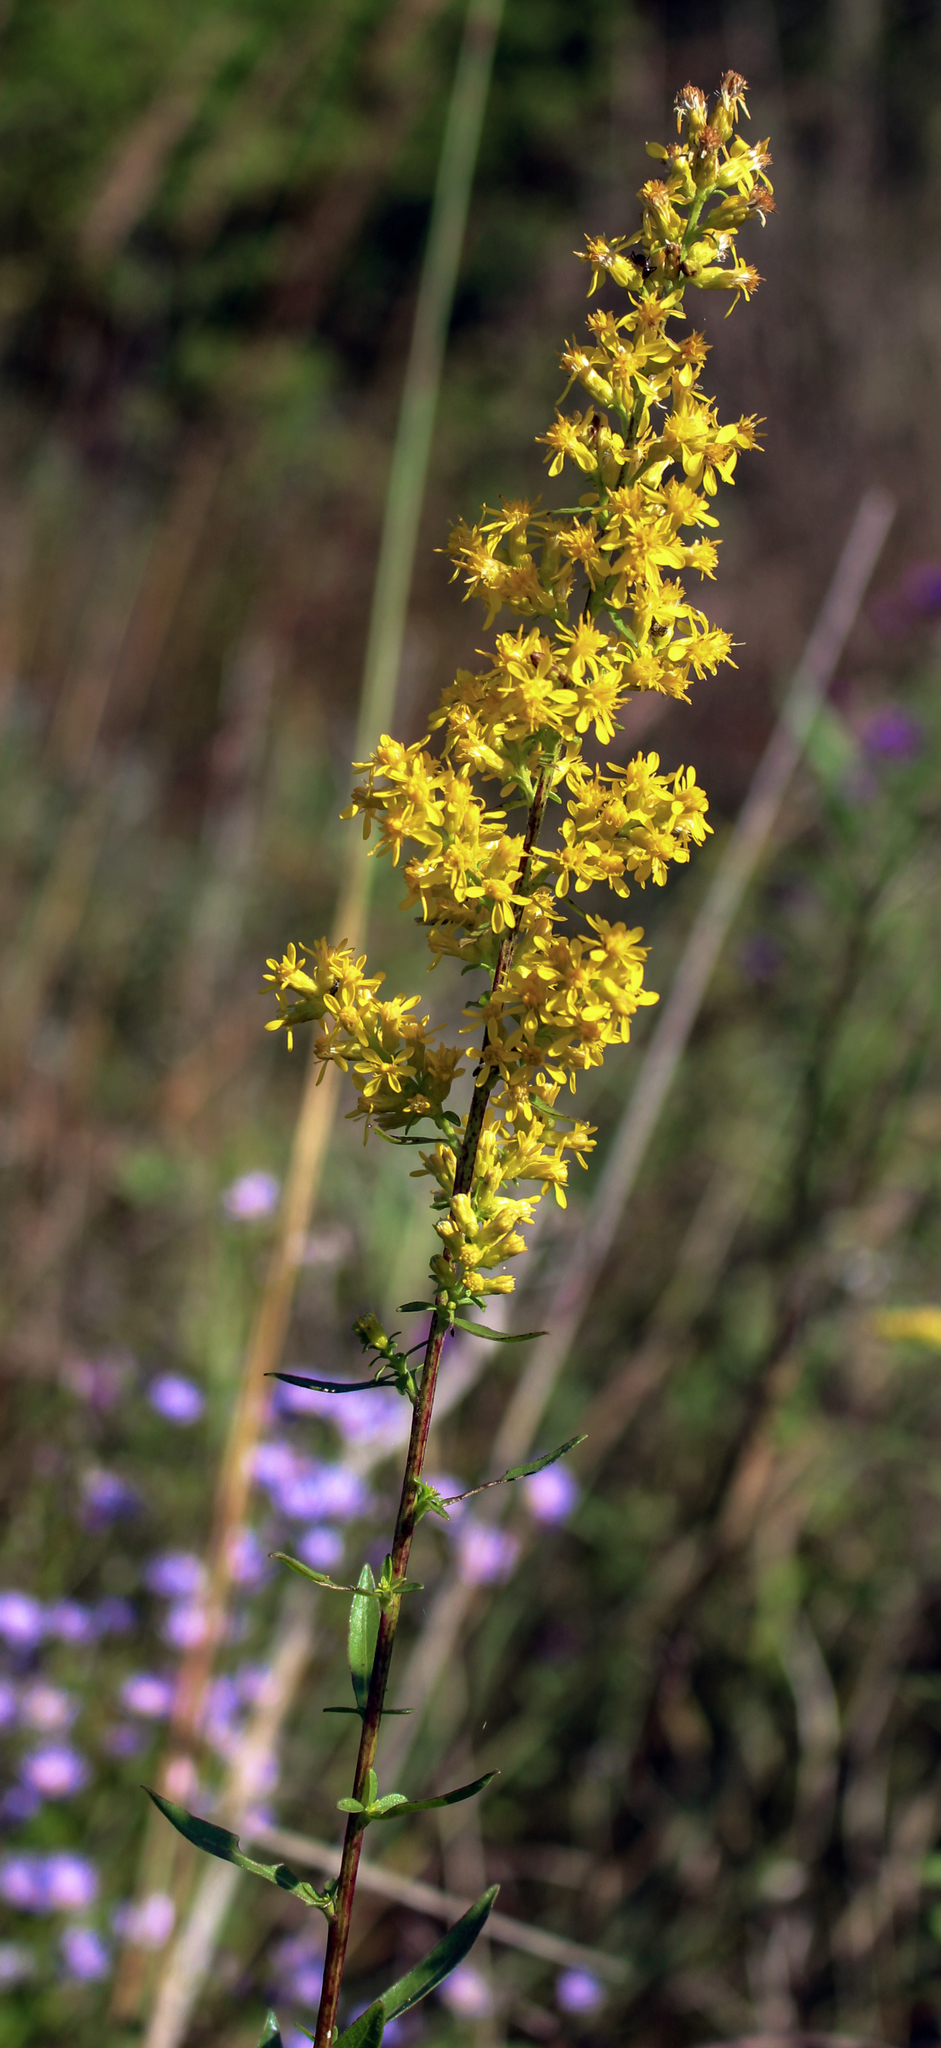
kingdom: Plantae
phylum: Tracheophyta
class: Magnoliopsida
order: Asterales
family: Asteraceae
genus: Solidago
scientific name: Solidago rigidiuscula
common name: Stiff-leaved showy goldenrod
